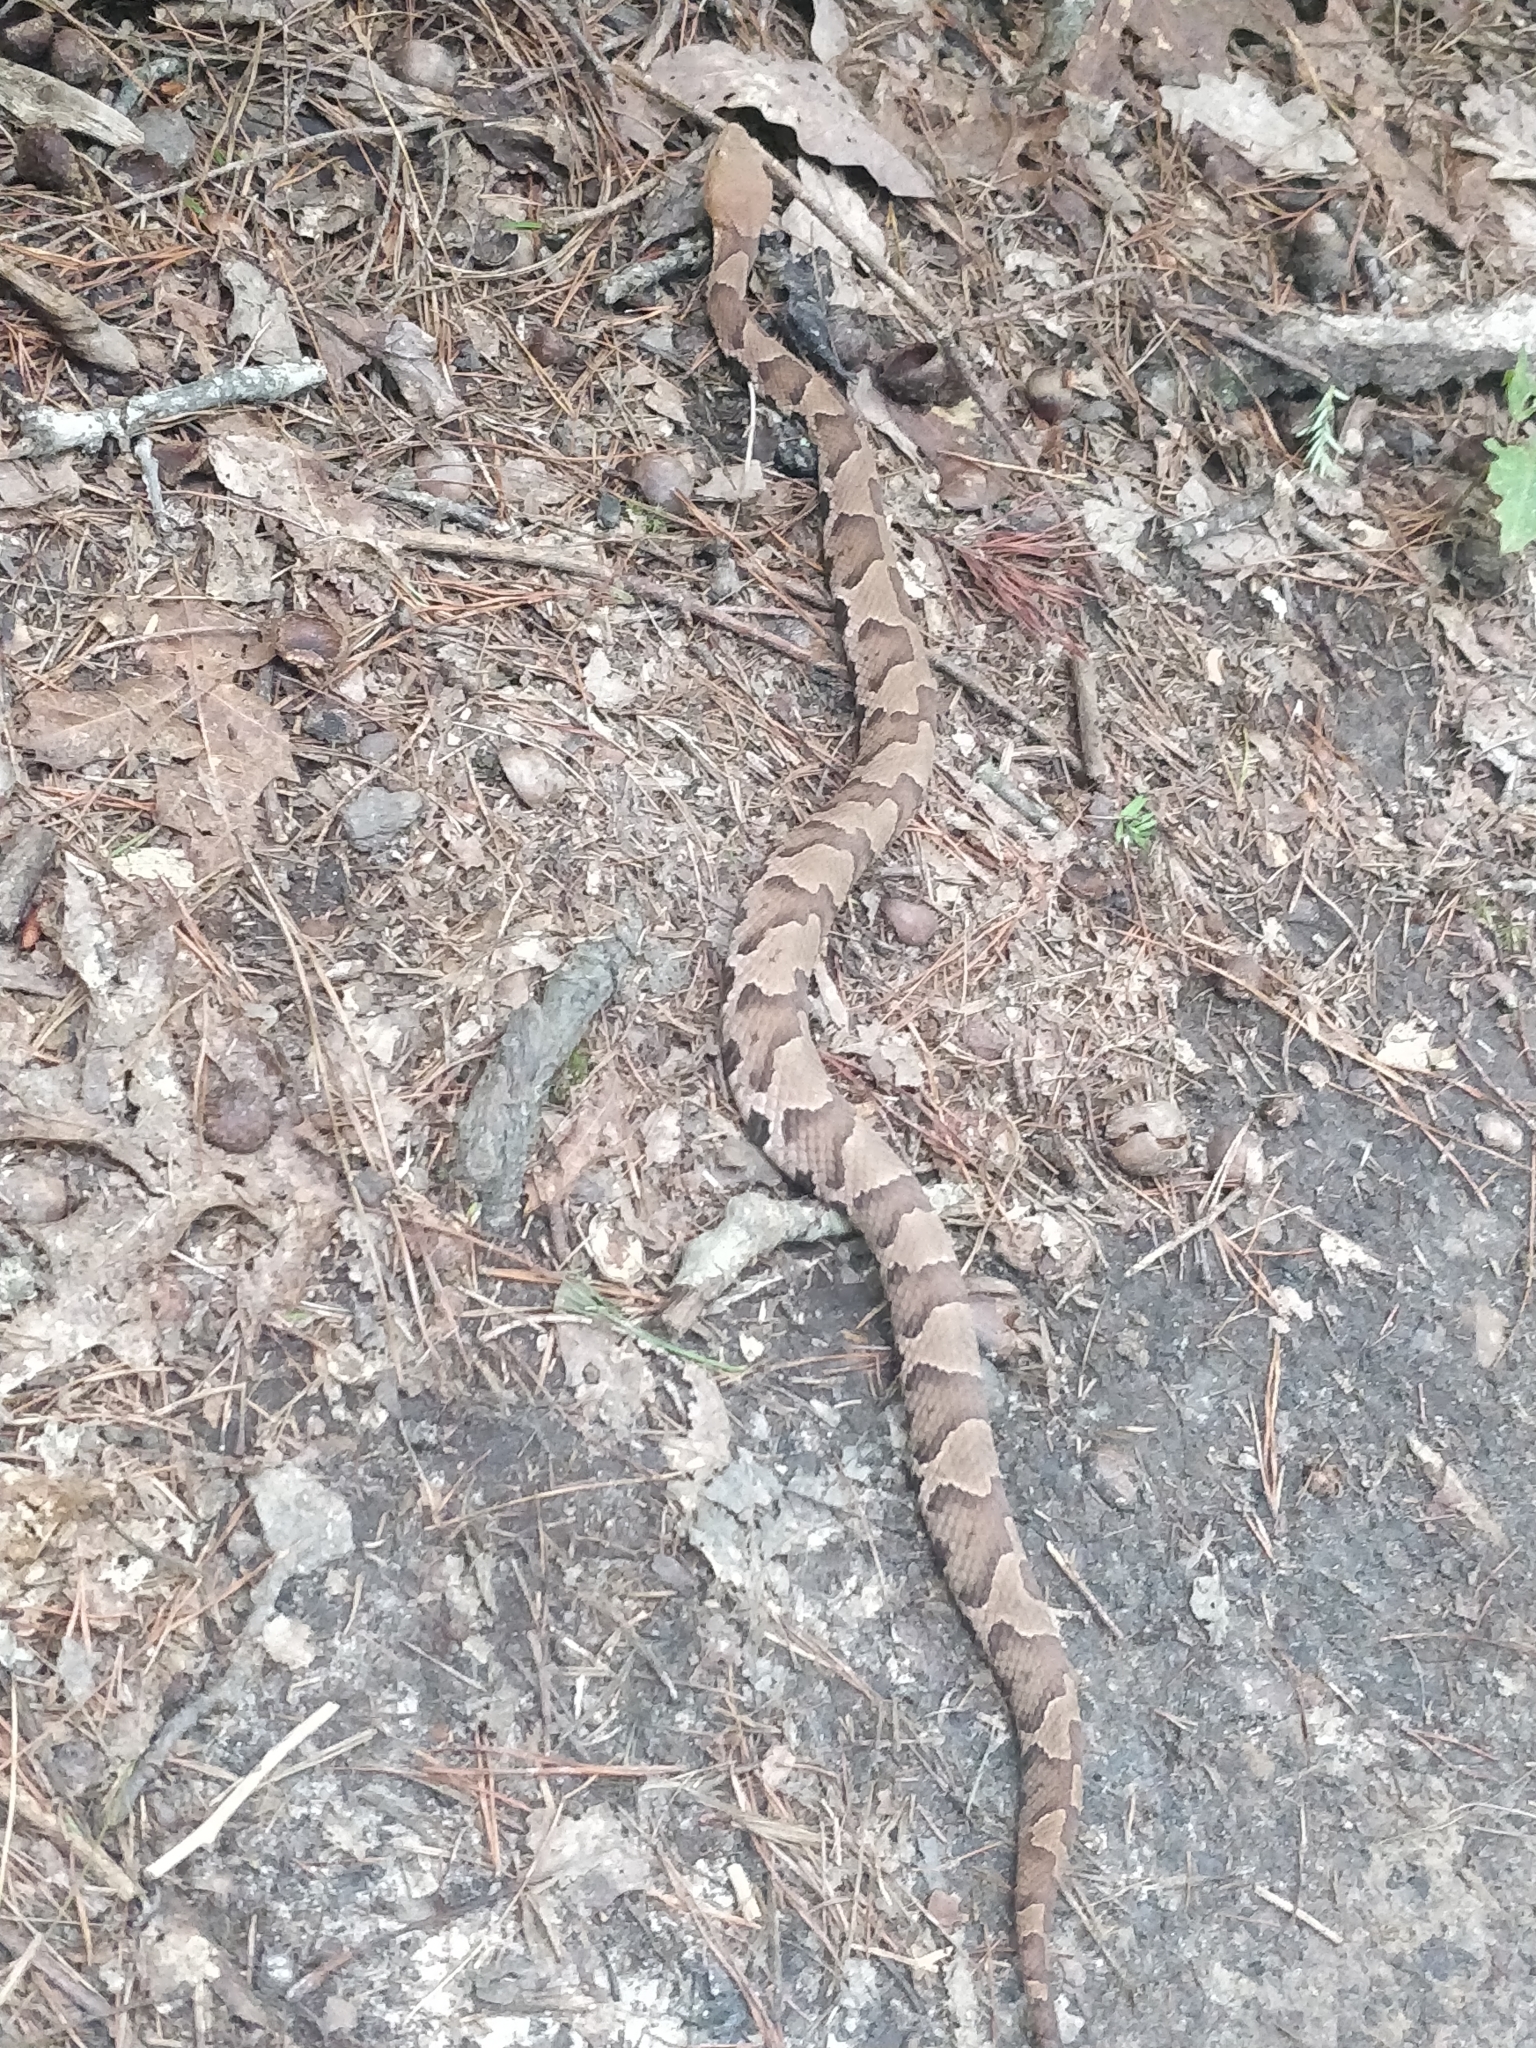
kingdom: Animalia
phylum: Chordata
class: Squamata
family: Viperidae
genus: Agkistrodon
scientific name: Agkistrodon contortrix
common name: Northern copperhead
